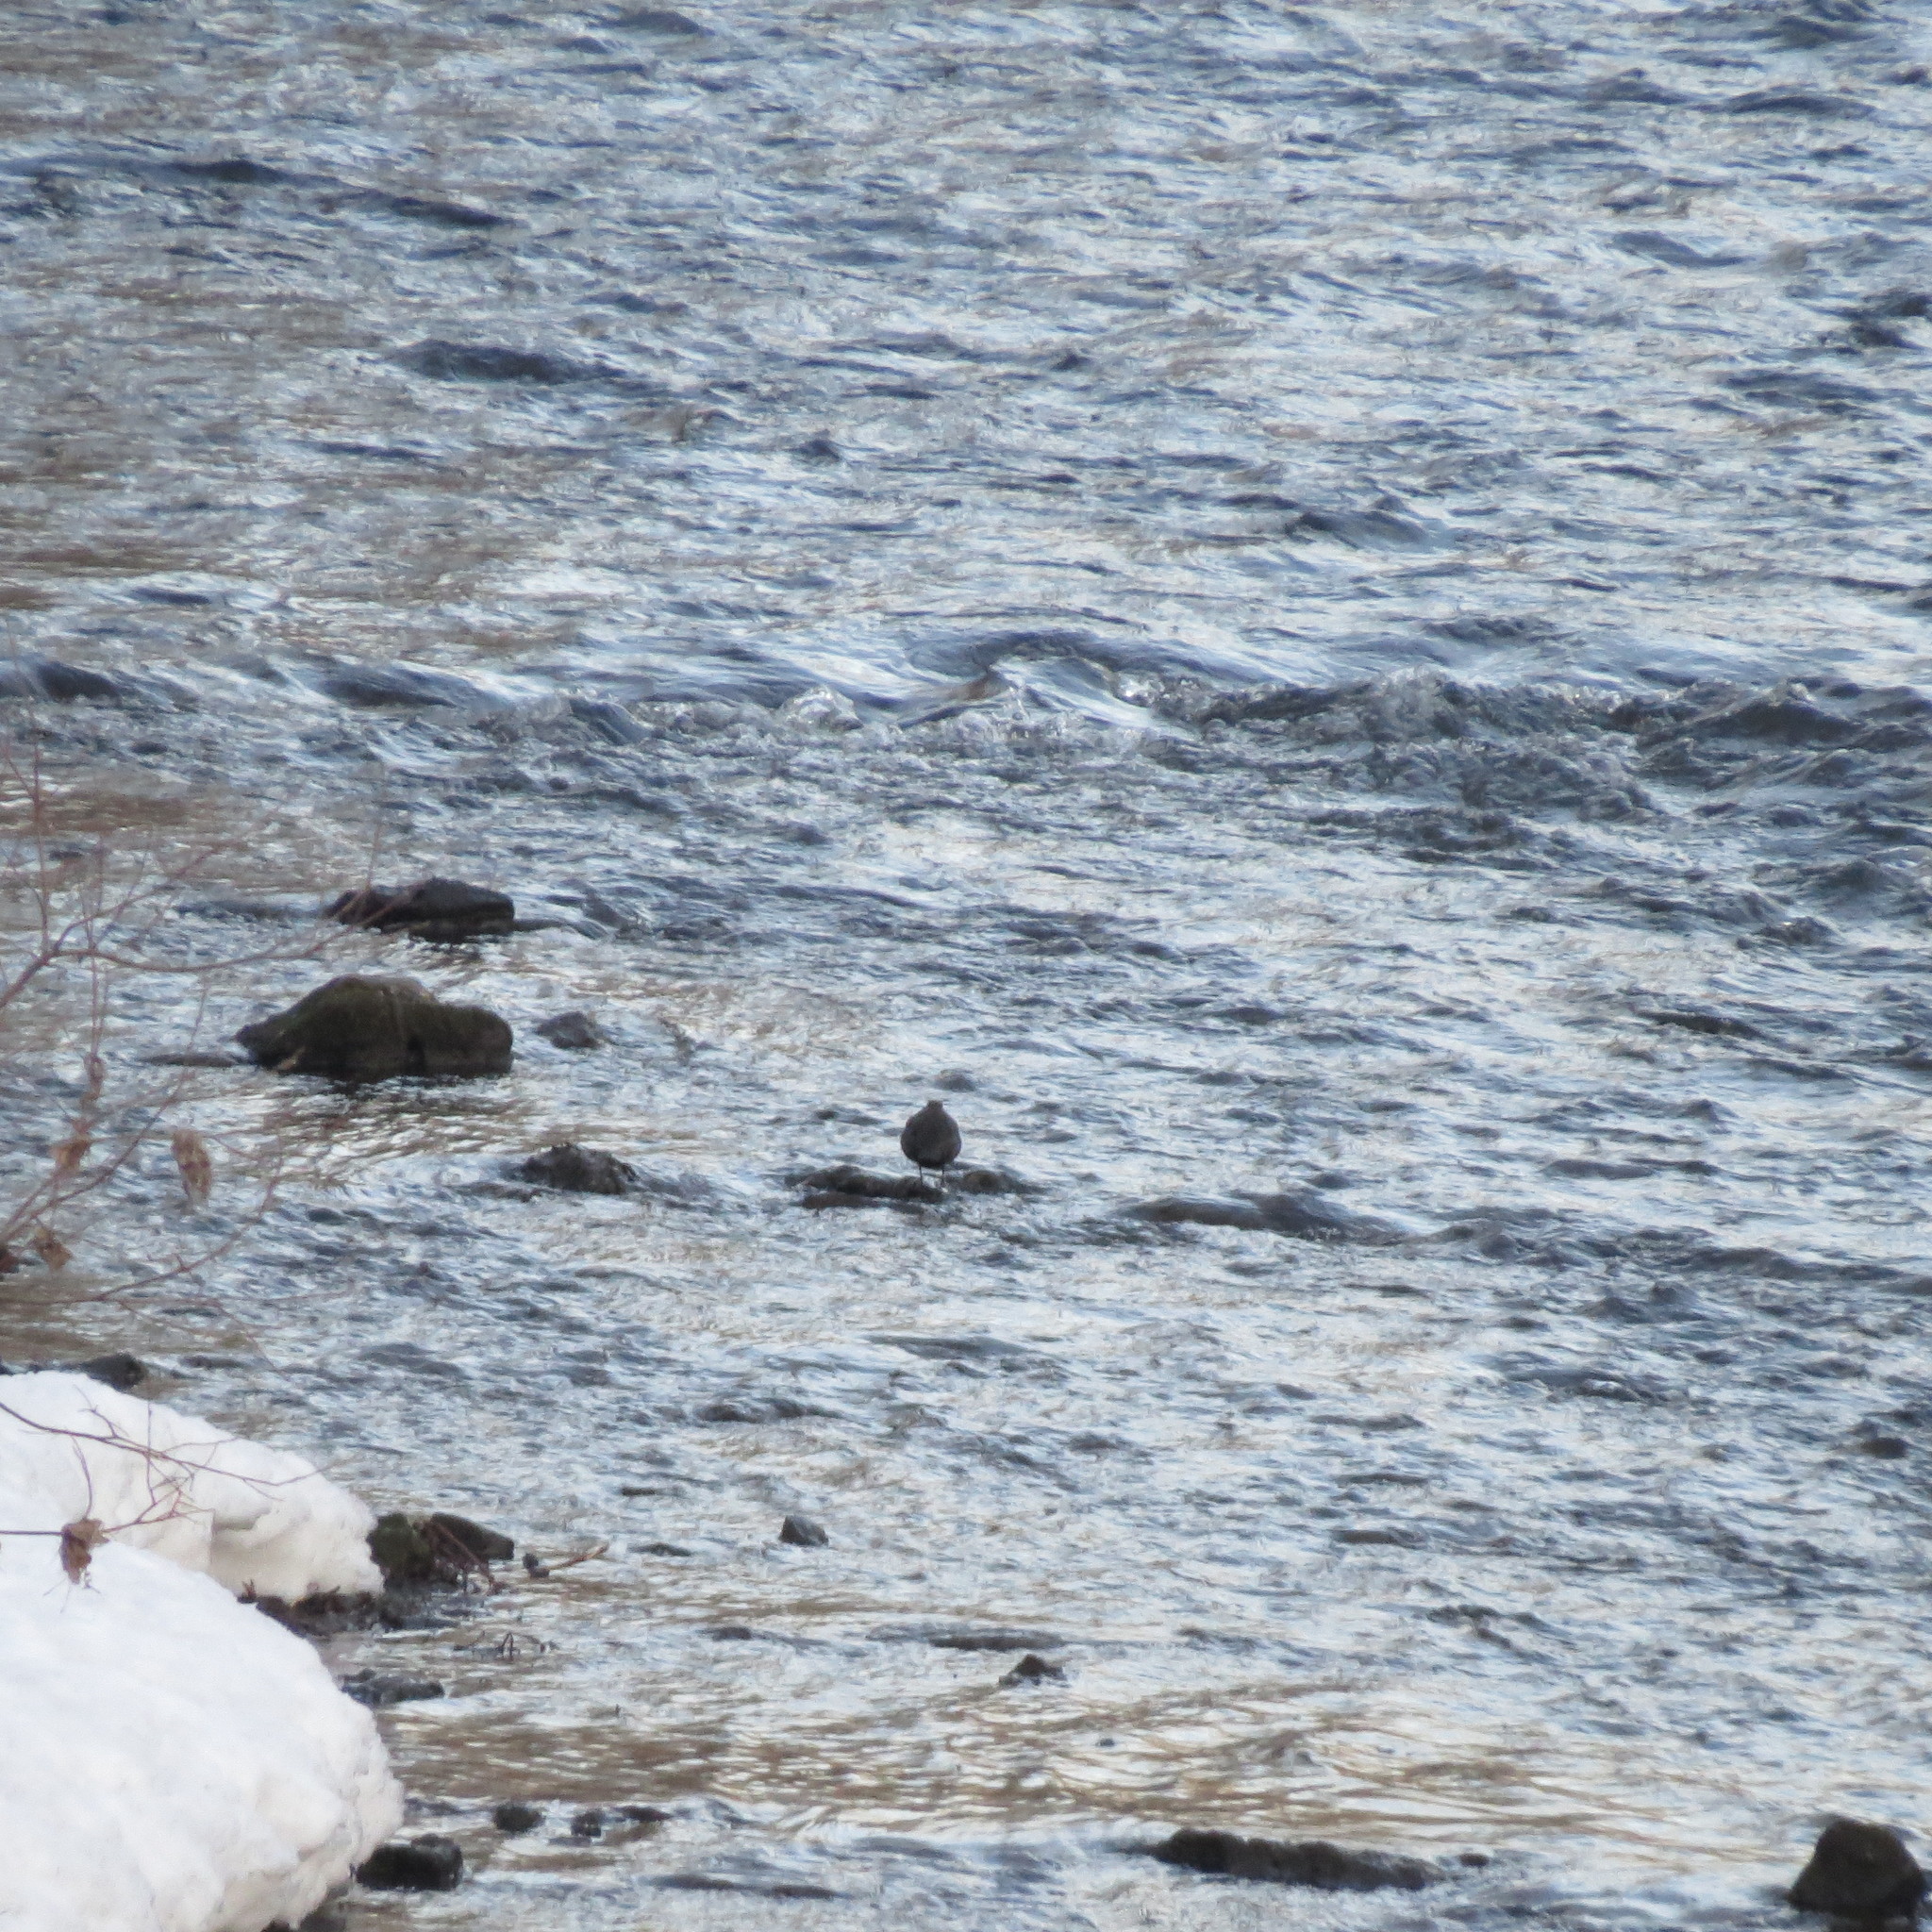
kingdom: Animalia
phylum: Chordata
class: Aves
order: Passeriformes
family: Cinclidae
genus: Cinclus
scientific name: Cinclus cinclus
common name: White-throated dipper
